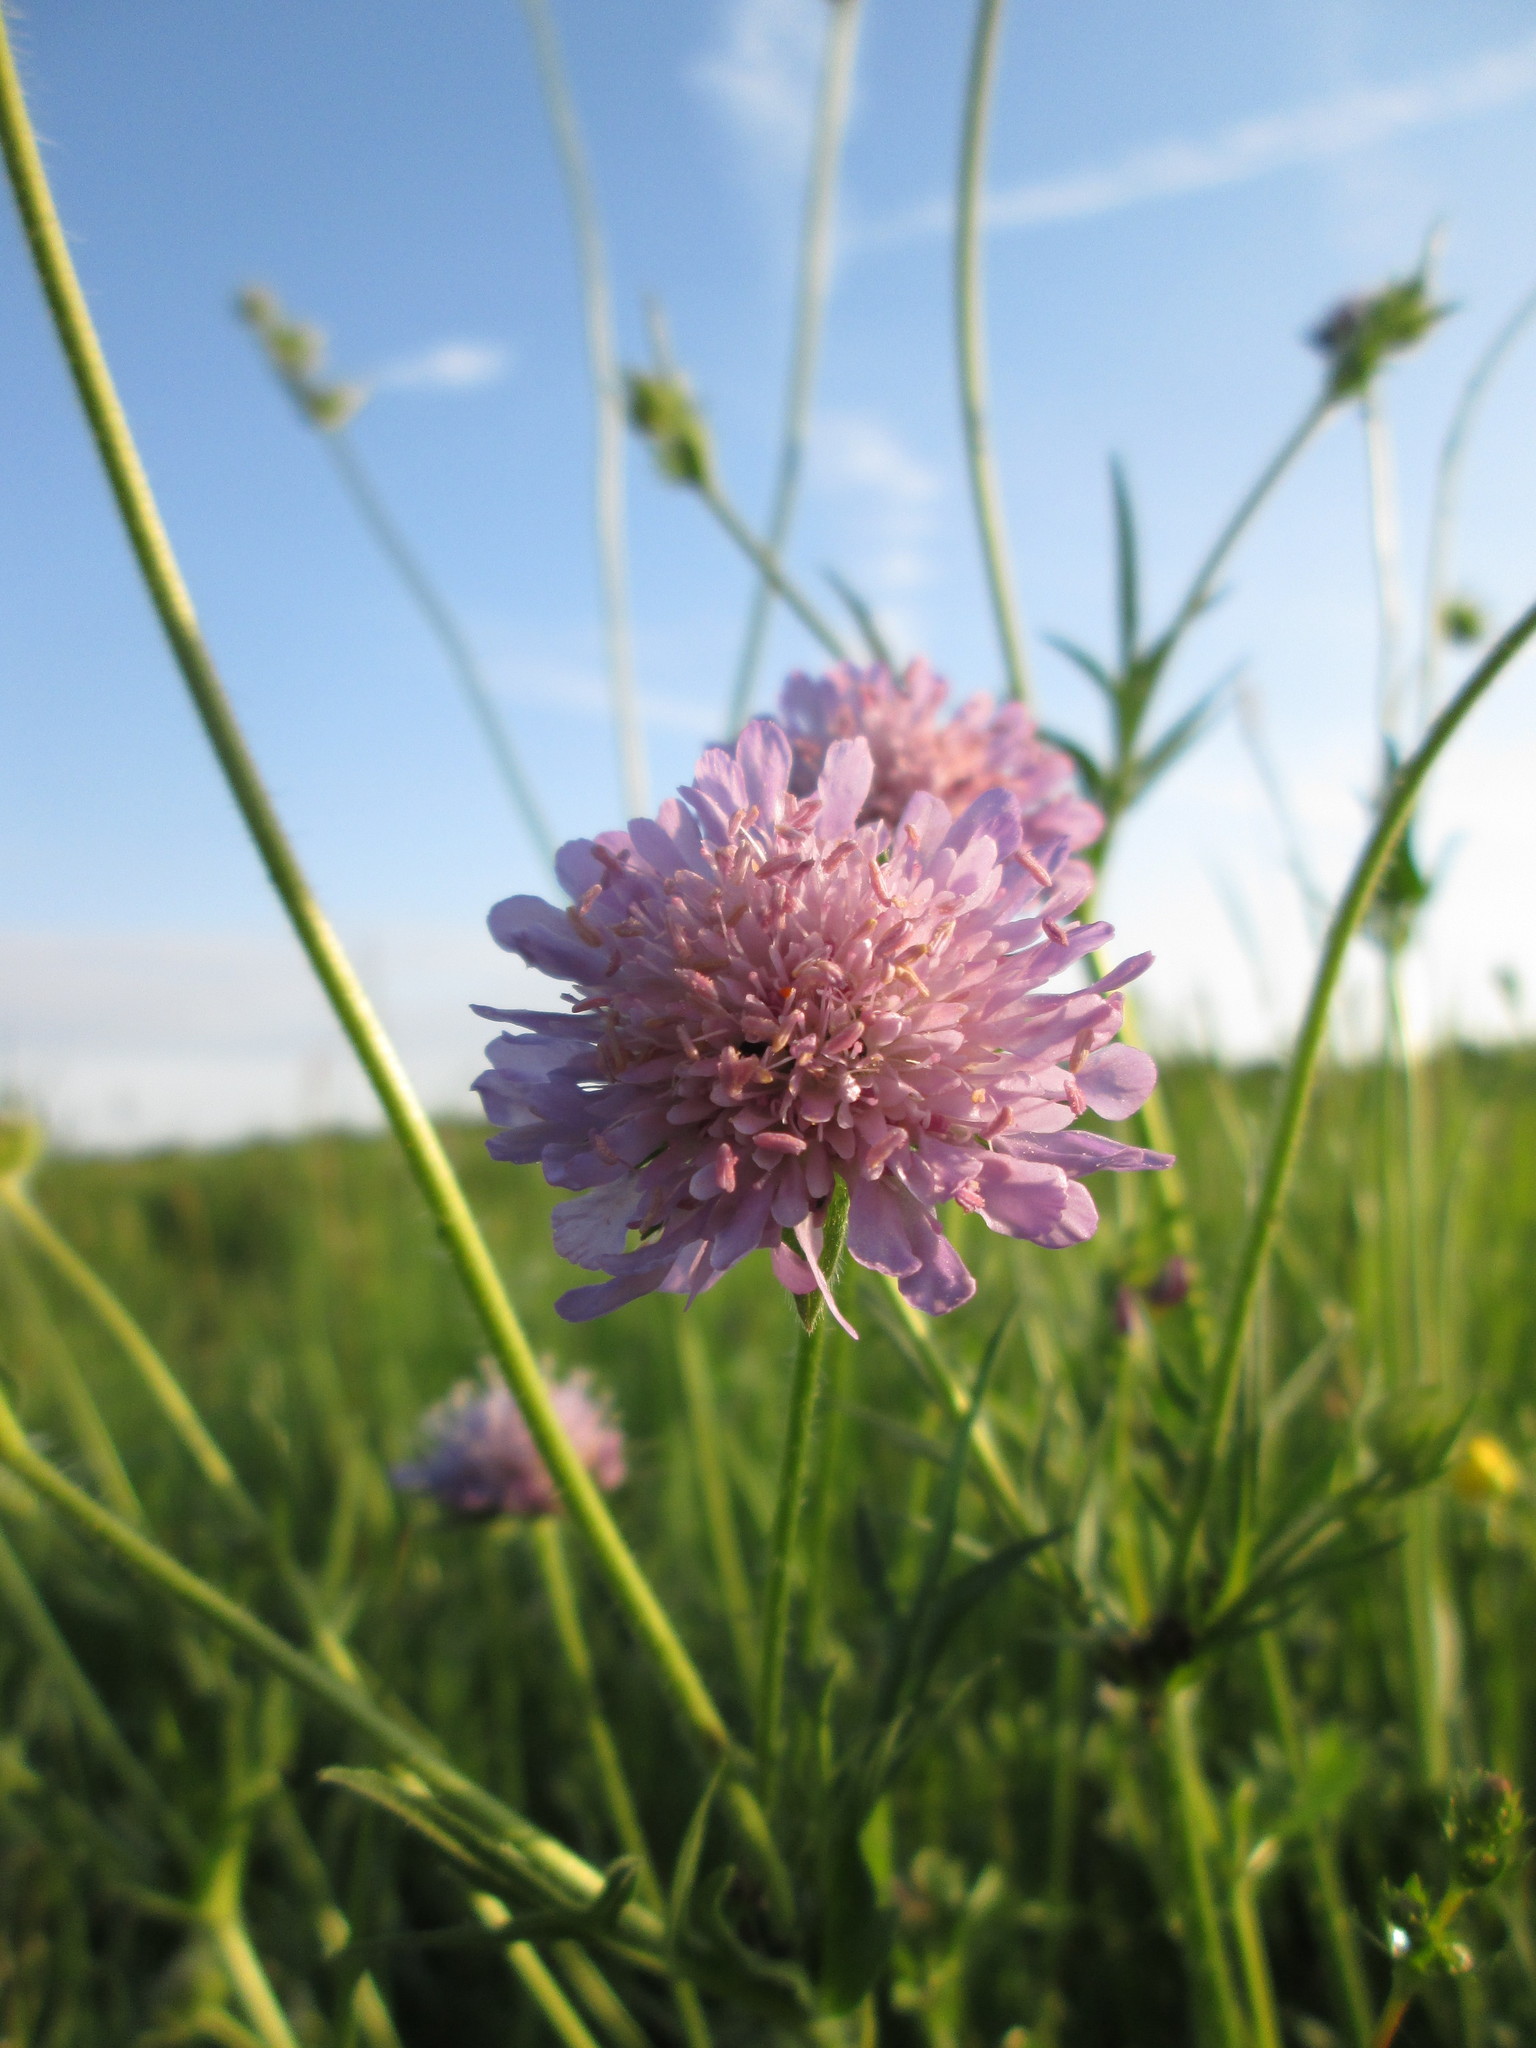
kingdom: Plantae
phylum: Tracheophyta
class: Magnoliopsida
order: Dipsacales
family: Caprifoliaceae
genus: Knautia
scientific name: Knautia arvensis
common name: Field scabiosa
